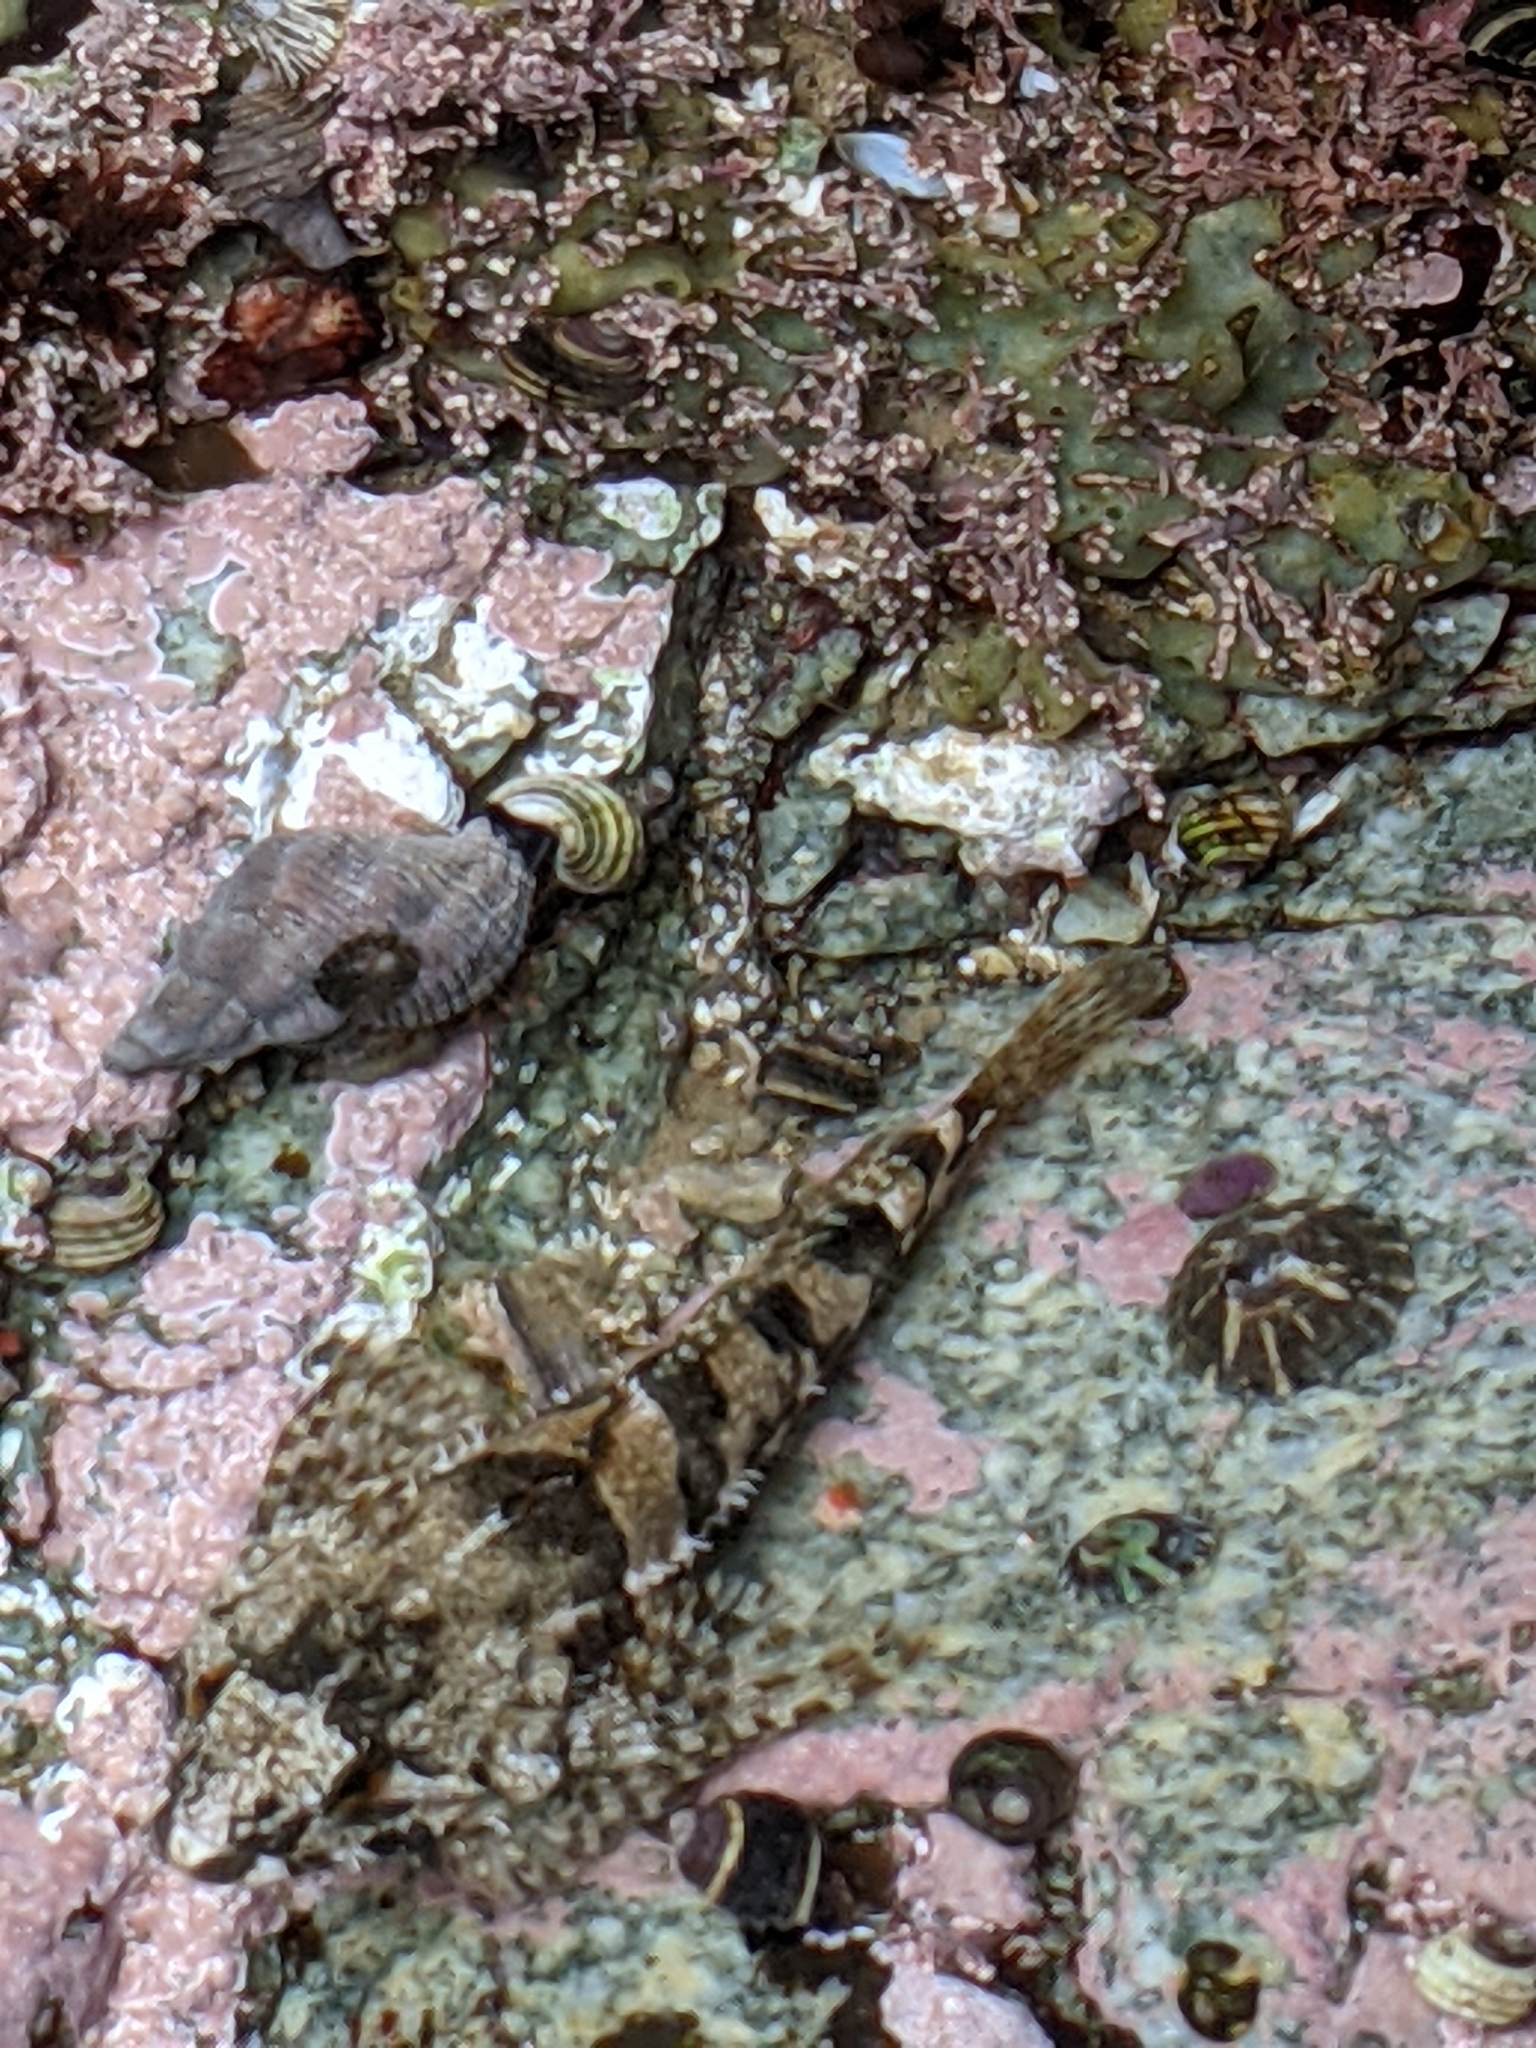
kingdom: Animalia
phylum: Chordata
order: Scorpaeniformes
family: Cottidae
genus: Oligocottus
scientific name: Oligocottus maculosus
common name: Tidepool sculpin
